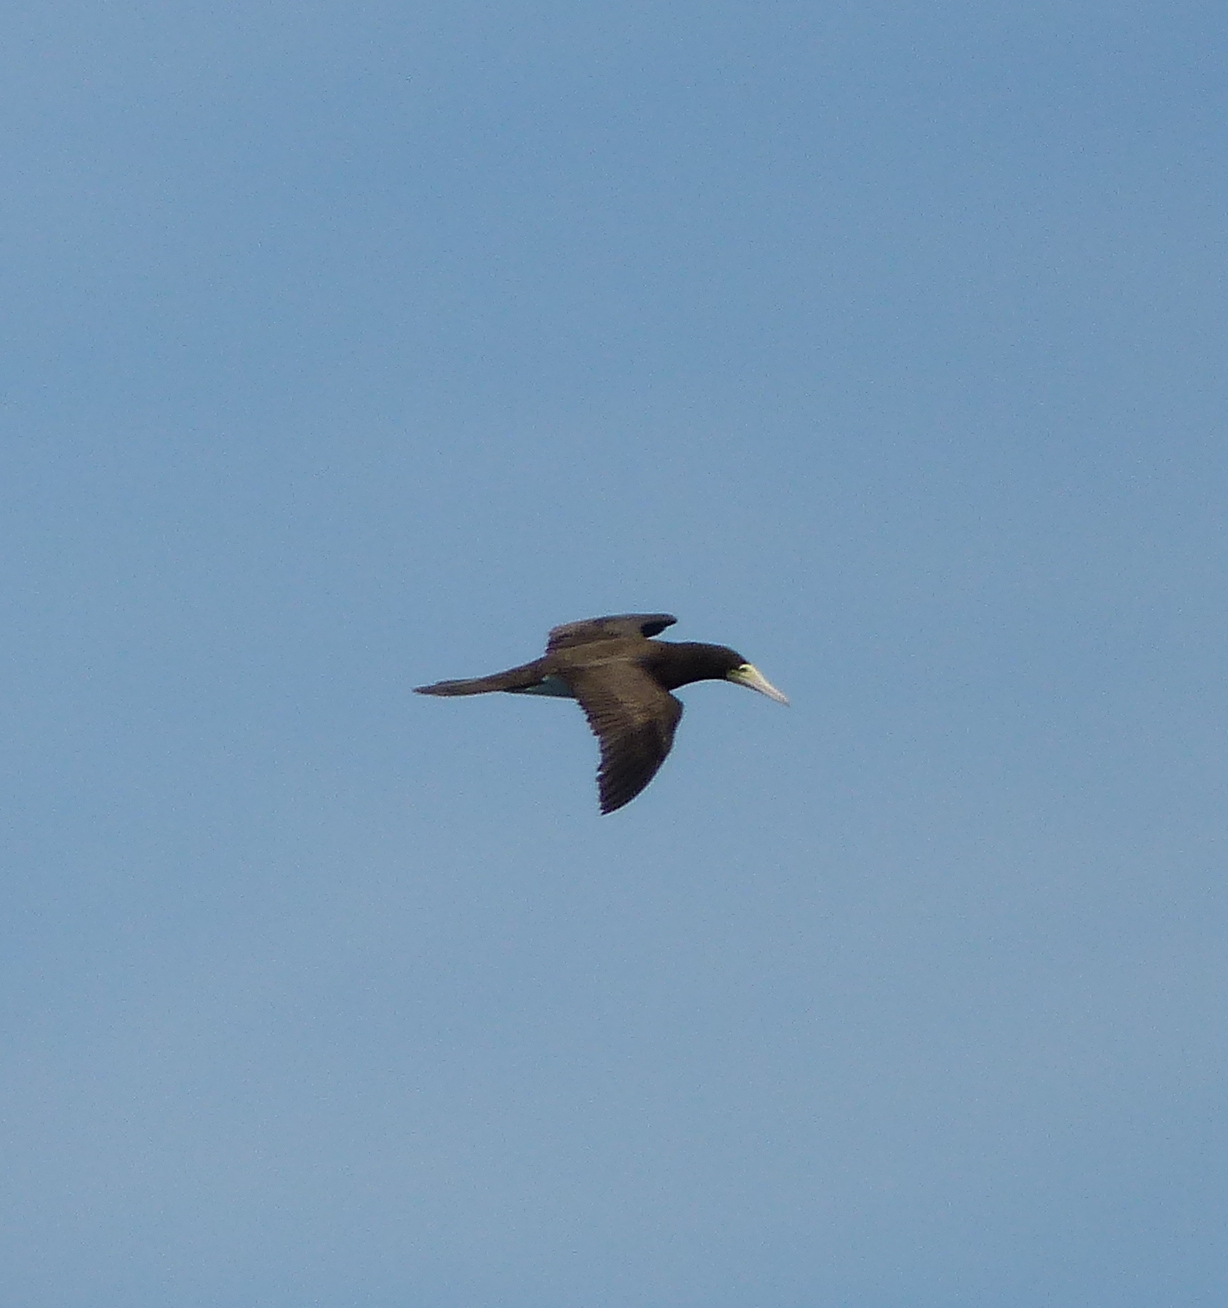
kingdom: Animalia
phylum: Chordata
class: Aves
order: Suliformes
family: Sulidae
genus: Sula
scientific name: Sula leucogaster
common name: Brown booby
